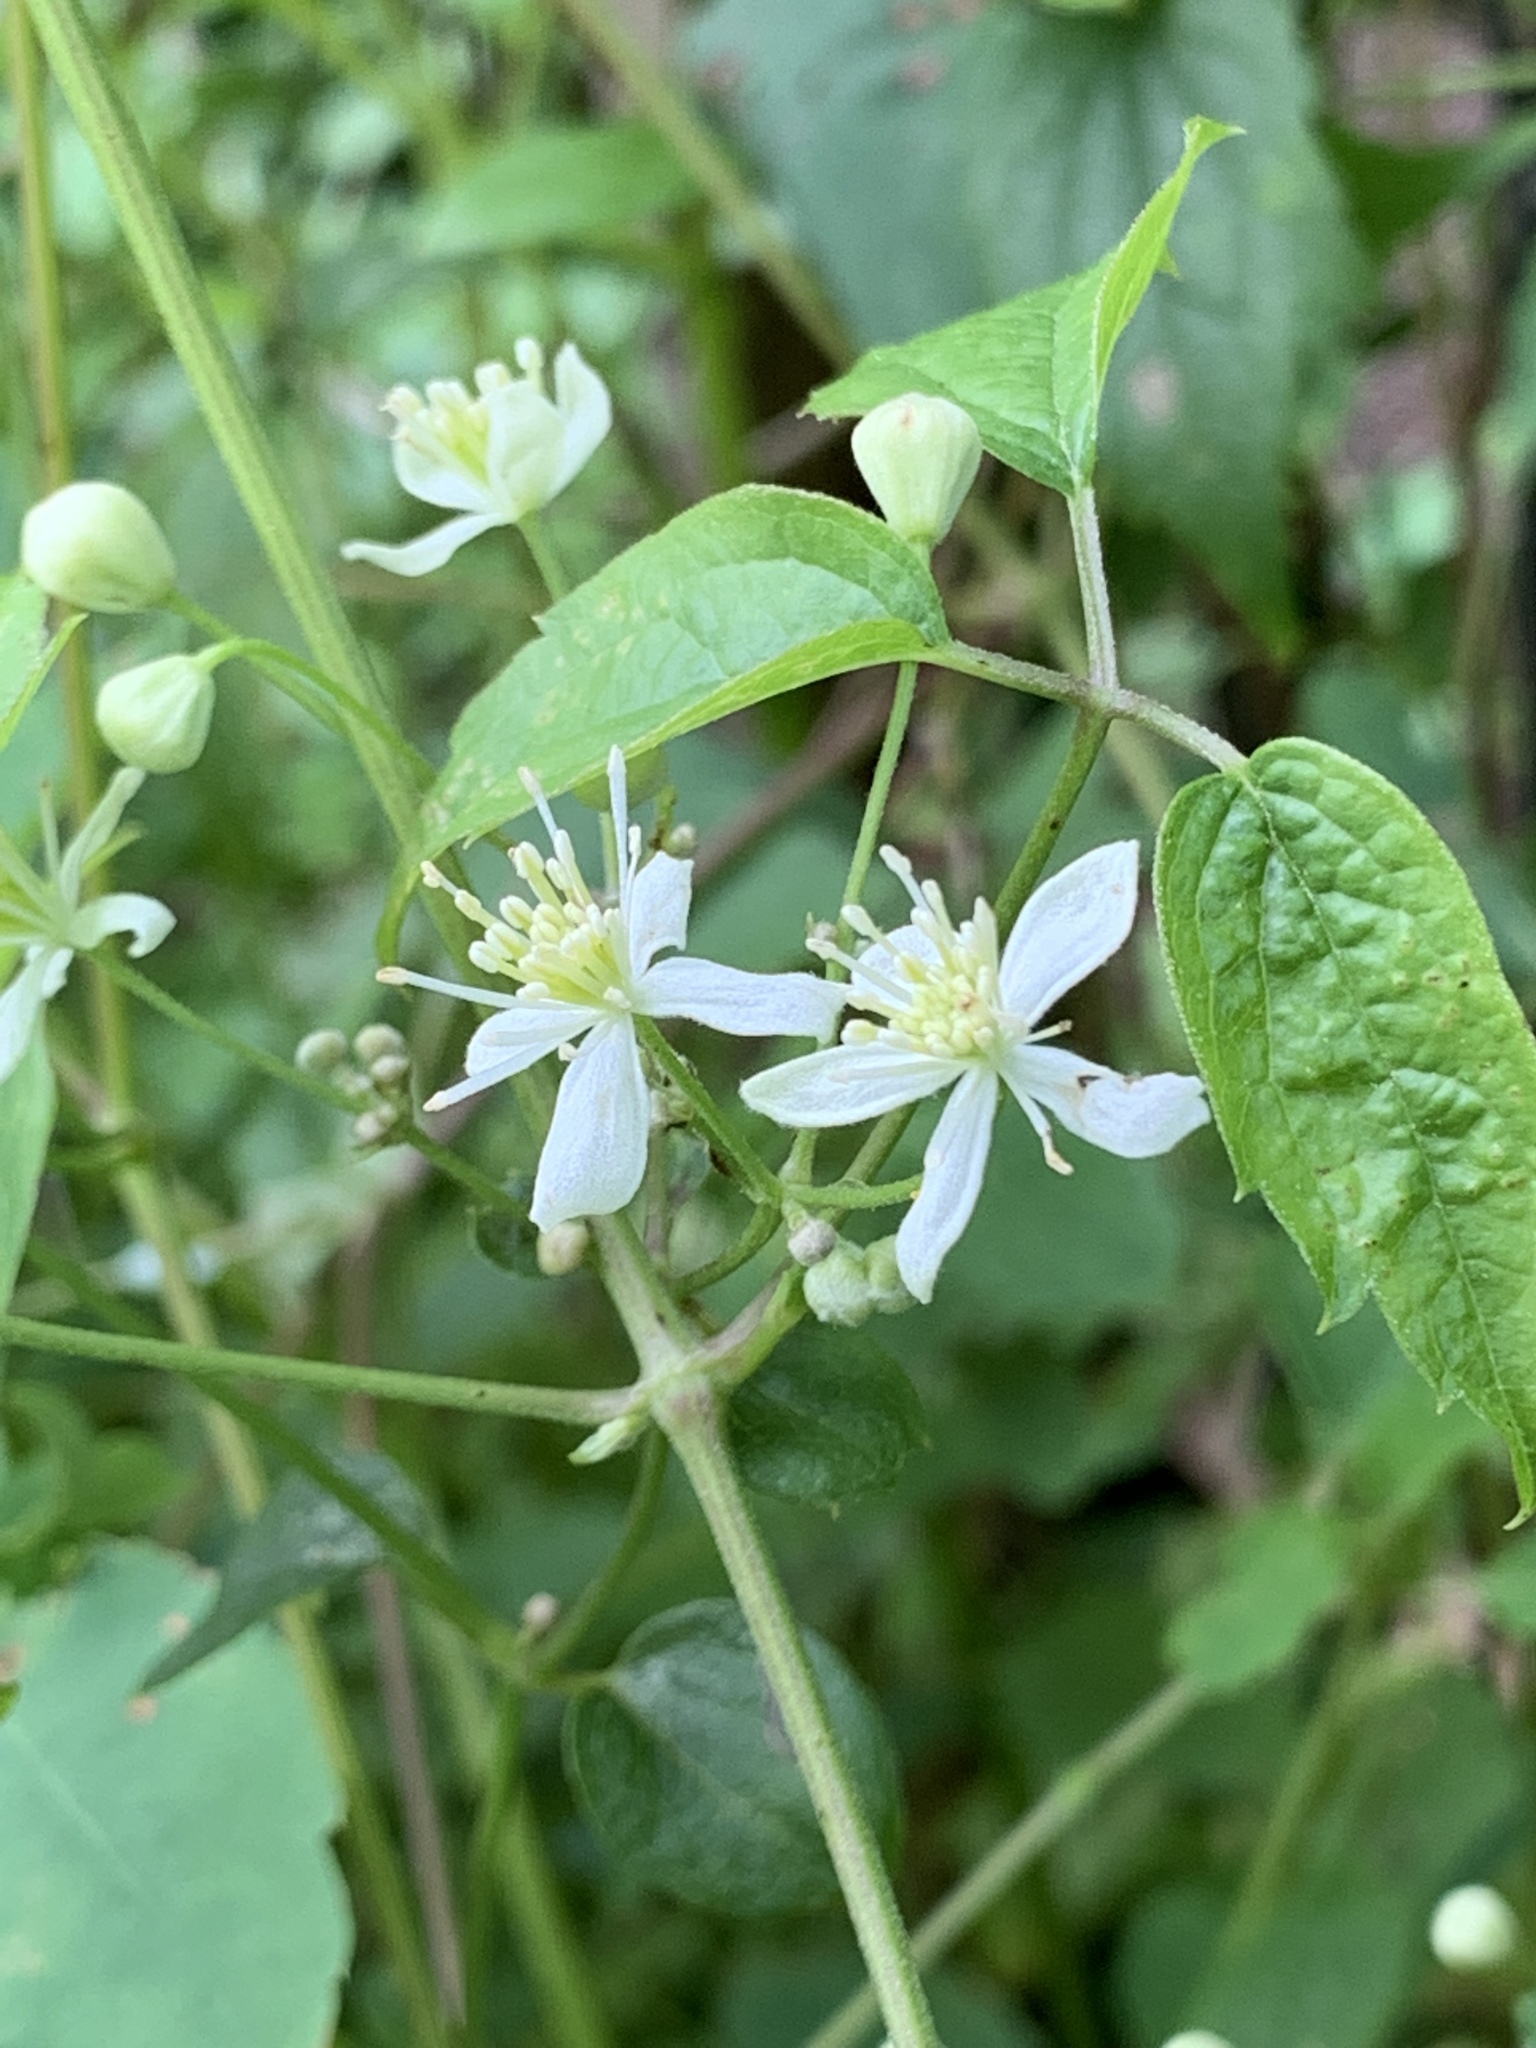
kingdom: Plantae
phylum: Tracheophyta
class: Magnoliopsida
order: Ranunculales
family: Ranunculaceae
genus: Clematis
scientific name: Clematis virginiana
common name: Virgin's-bower
